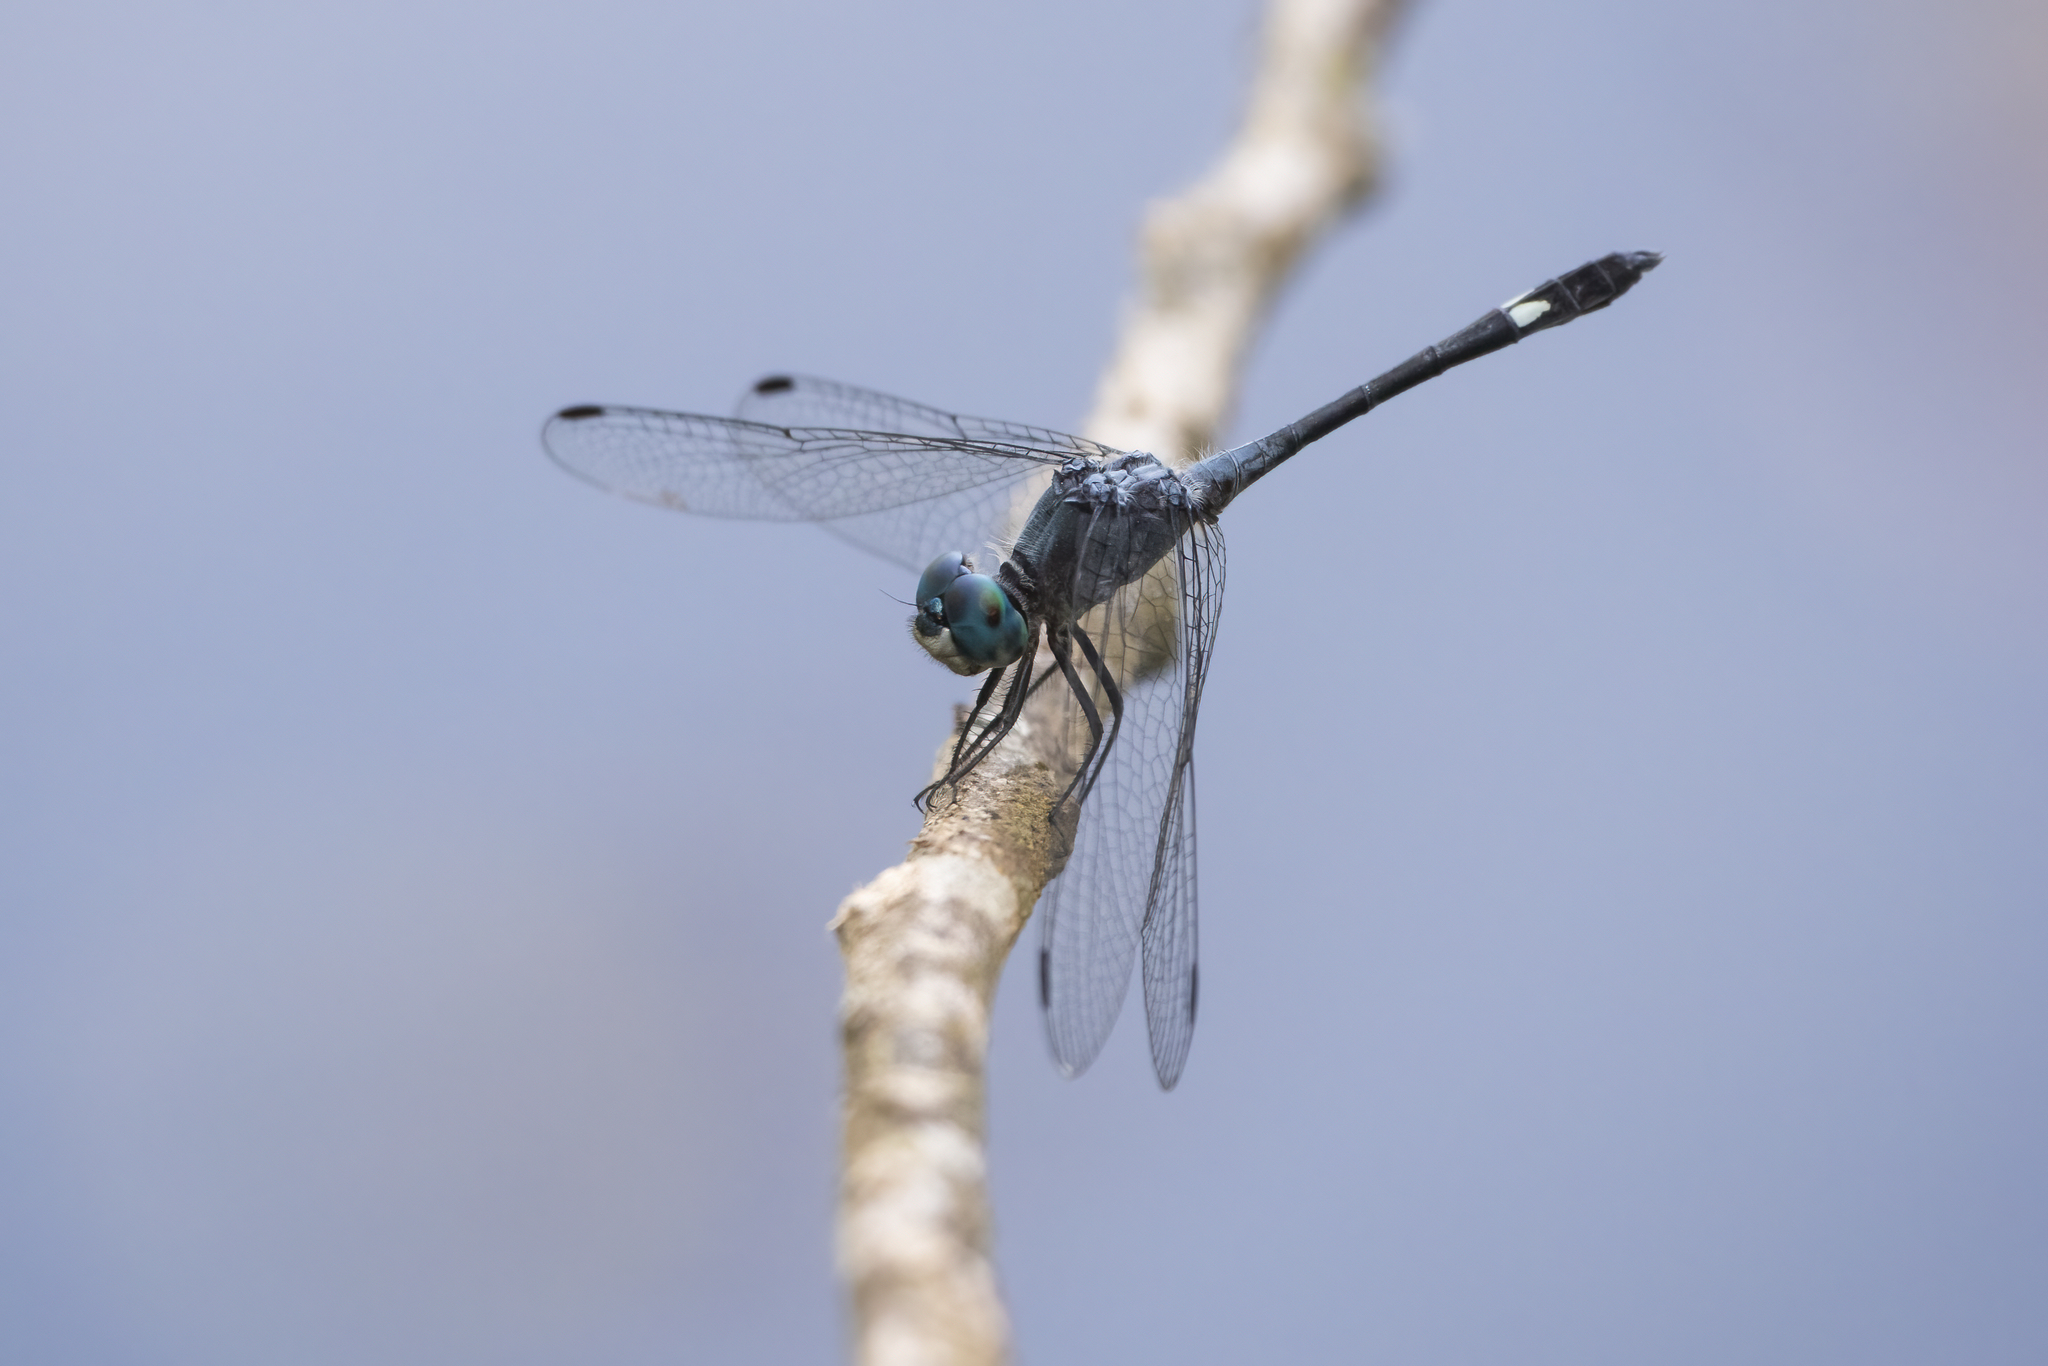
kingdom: Animalia
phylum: Arthropoda
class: Insecta
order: Odonata
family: Libellulidae
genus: Micrathyria
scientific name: Micrathyria aequalis
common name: Spot-tailed dasher
